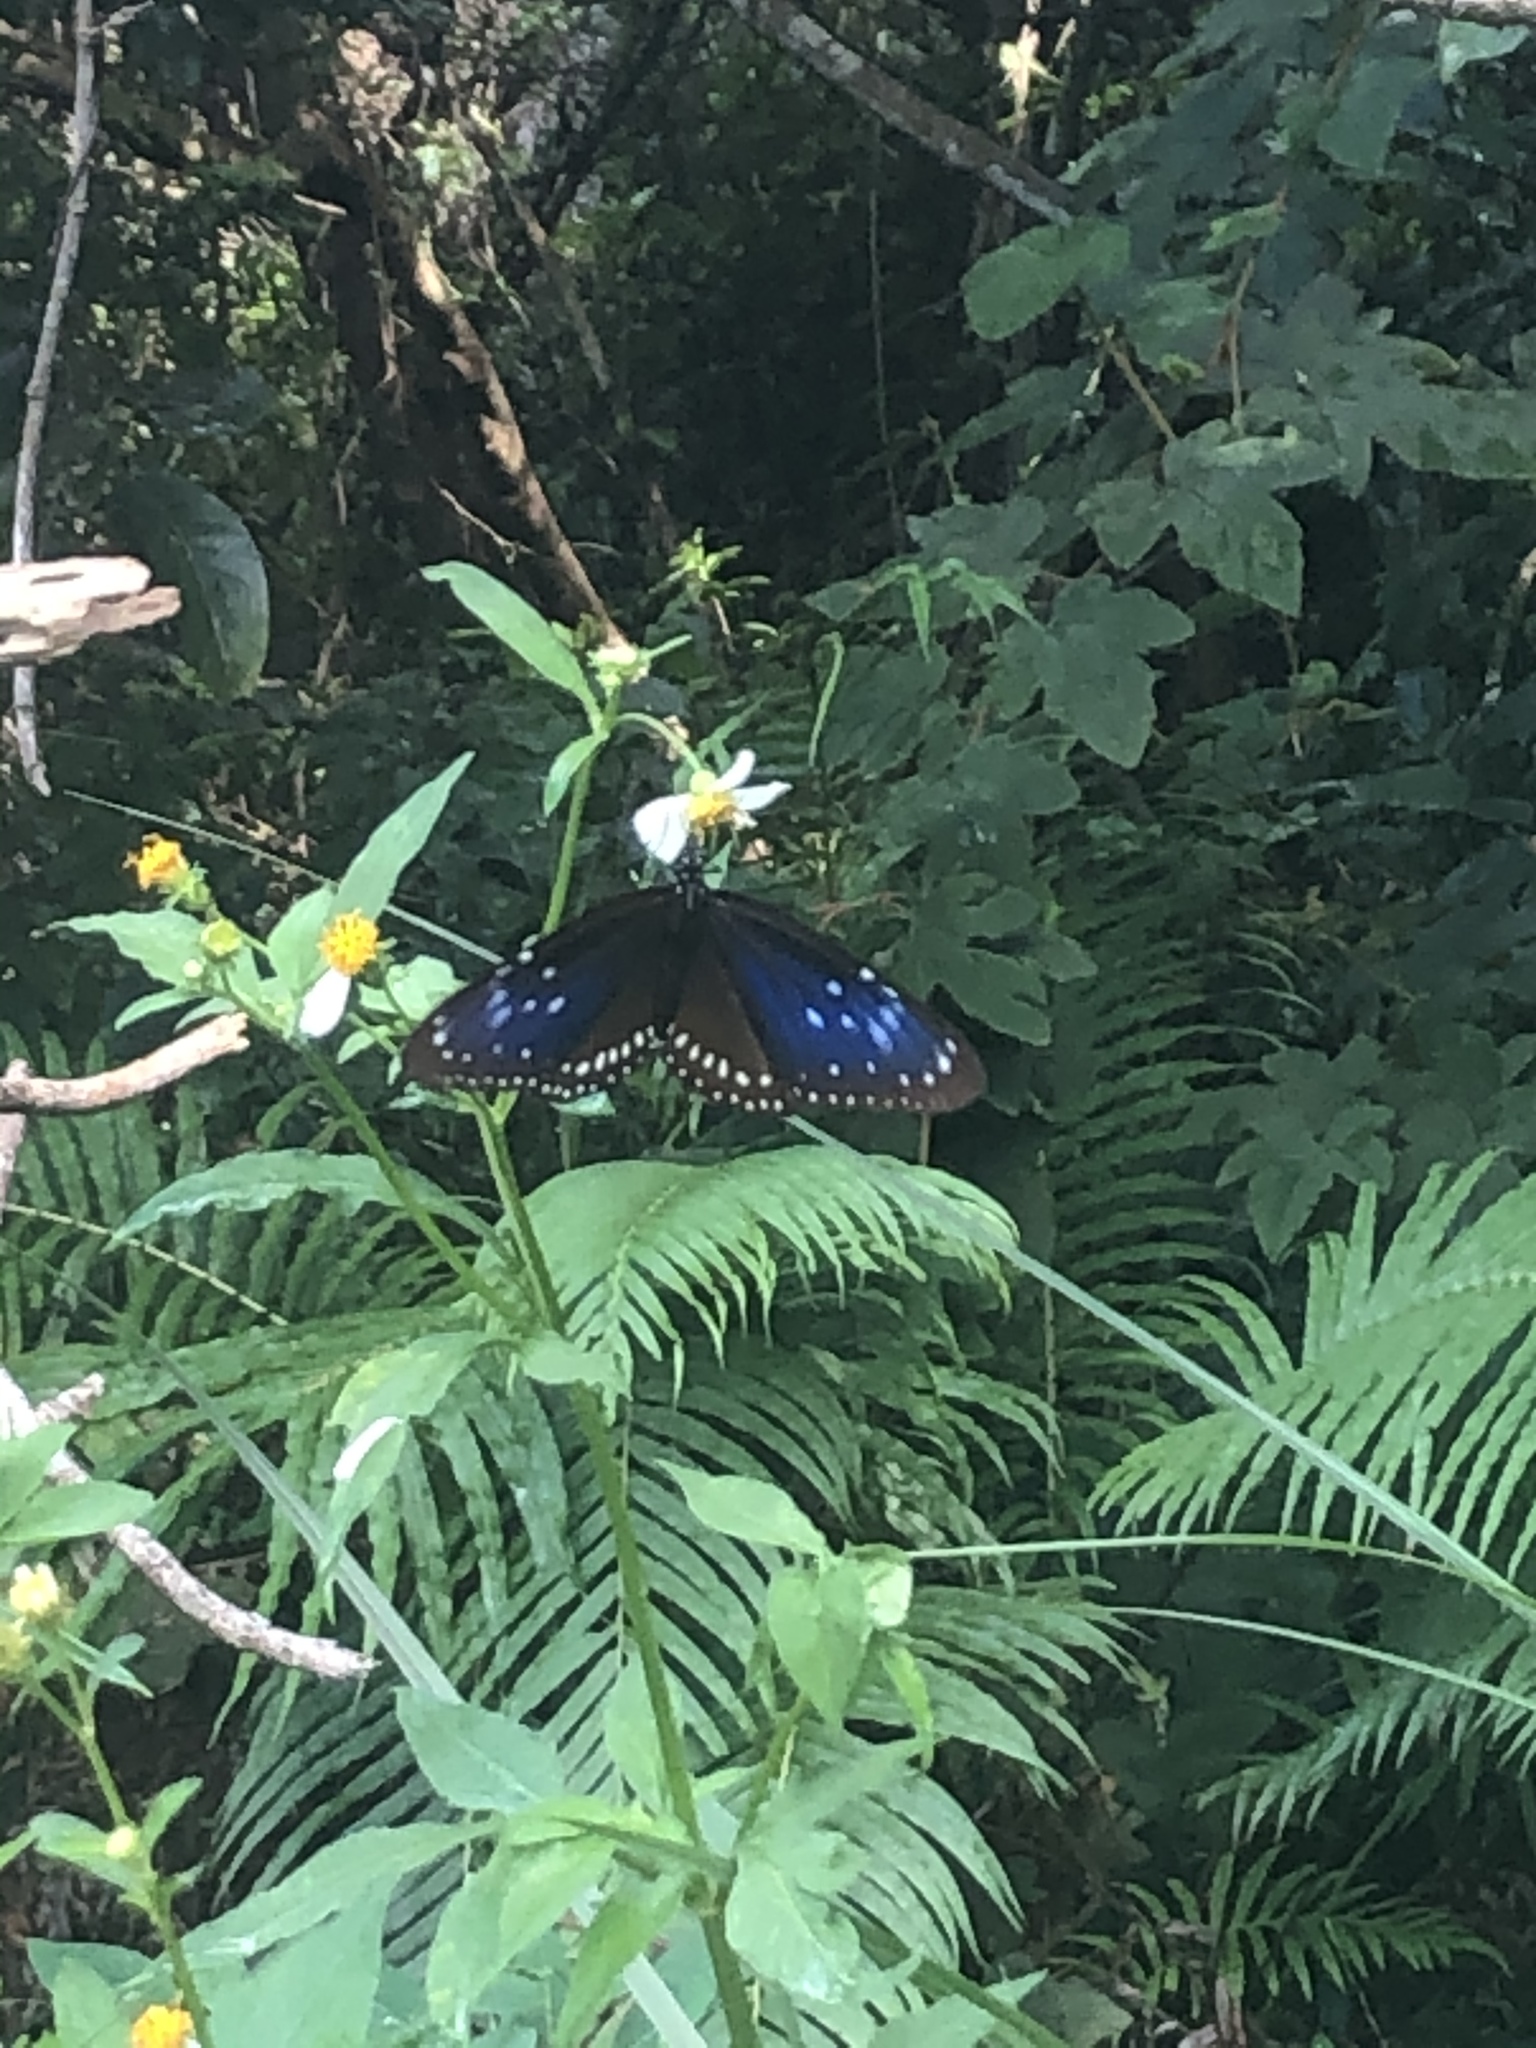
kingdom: Animalia
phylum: Arthropoda
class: Insecta
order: Lepidoptera
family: Nymphalidae
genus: Euploea
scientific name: Euploea midamus
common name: Blue-spotted crow butterfly
